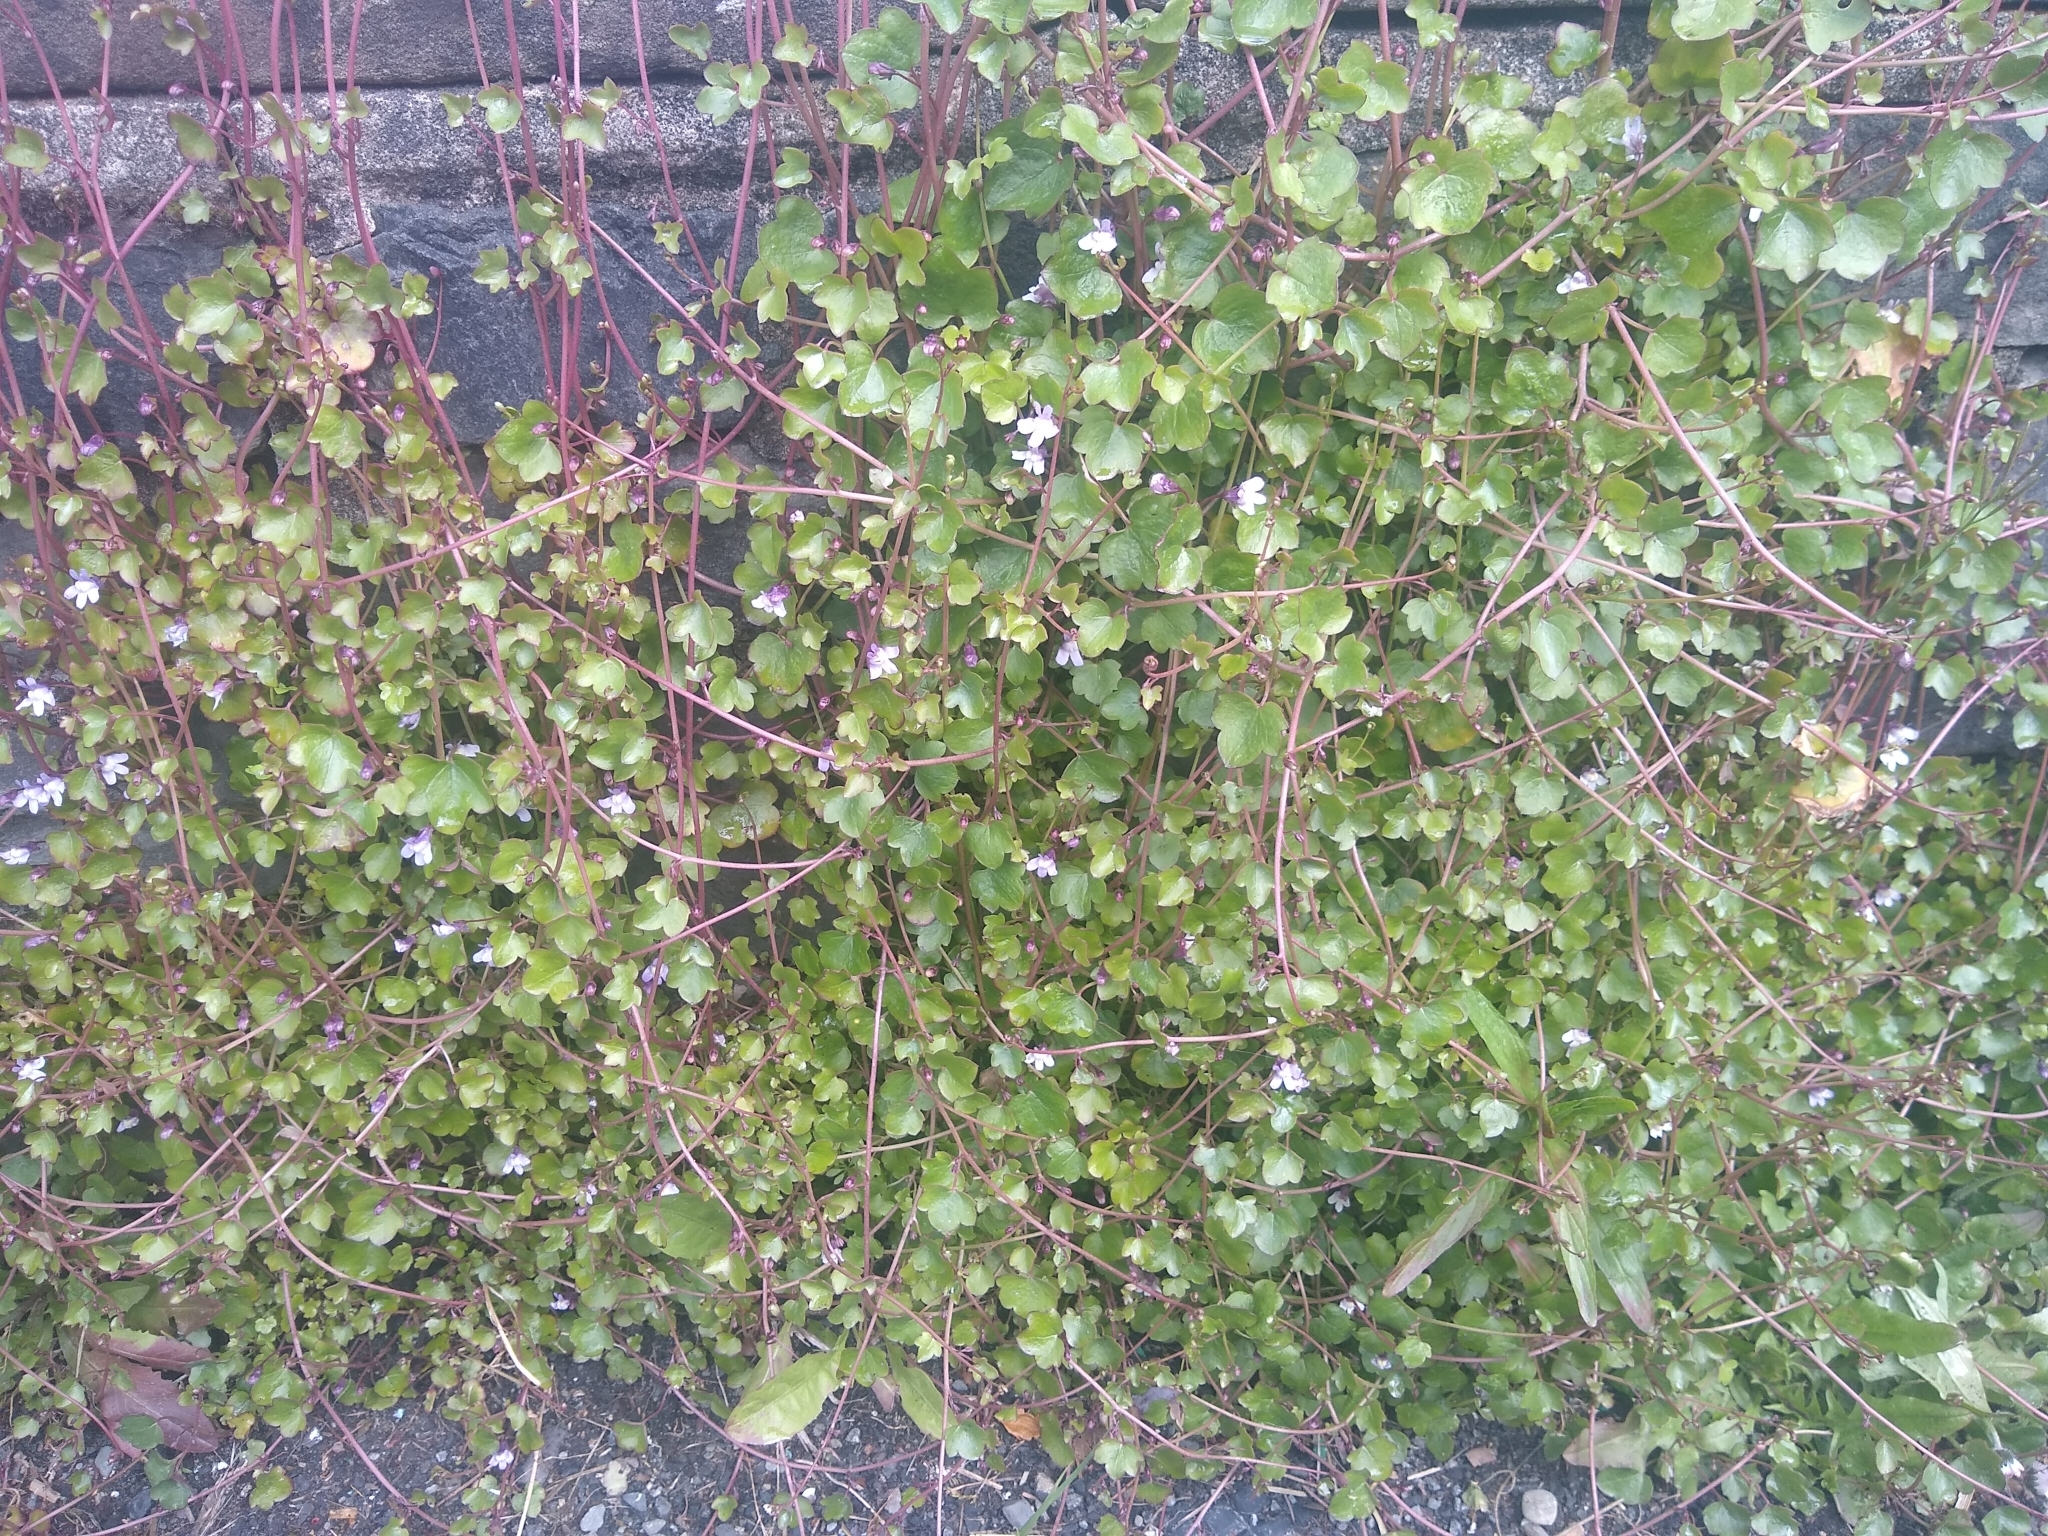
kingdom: Plantae
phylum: Tracheophyta
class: Magnoliopsida
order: Lamiales
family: Plantaginaceae
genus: Cymbalaria
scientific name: Cymbalaria muralis
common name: Ivy-leaved toadflax
